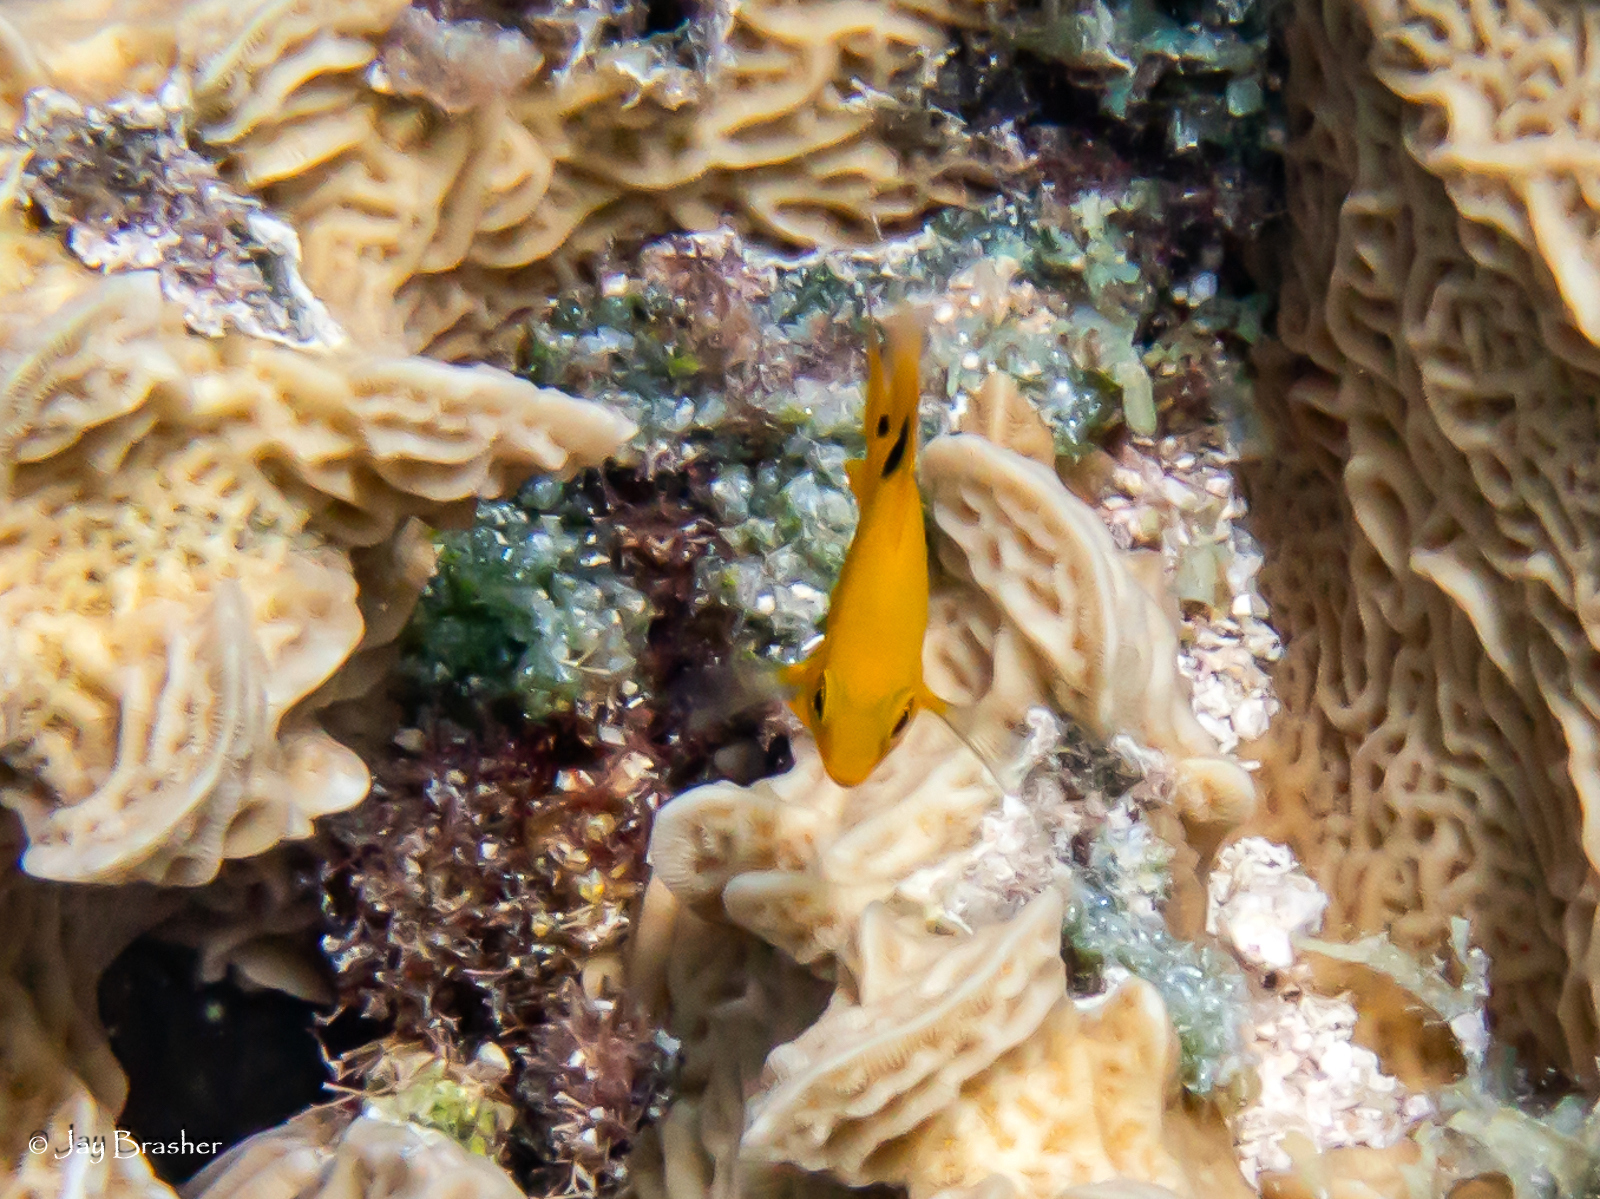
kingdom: Animalia
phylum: Chordata
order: Perciformes
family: Pomacentridae
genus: Stegastes
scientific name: Stegastes planifrons
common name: Threespot damselfish
